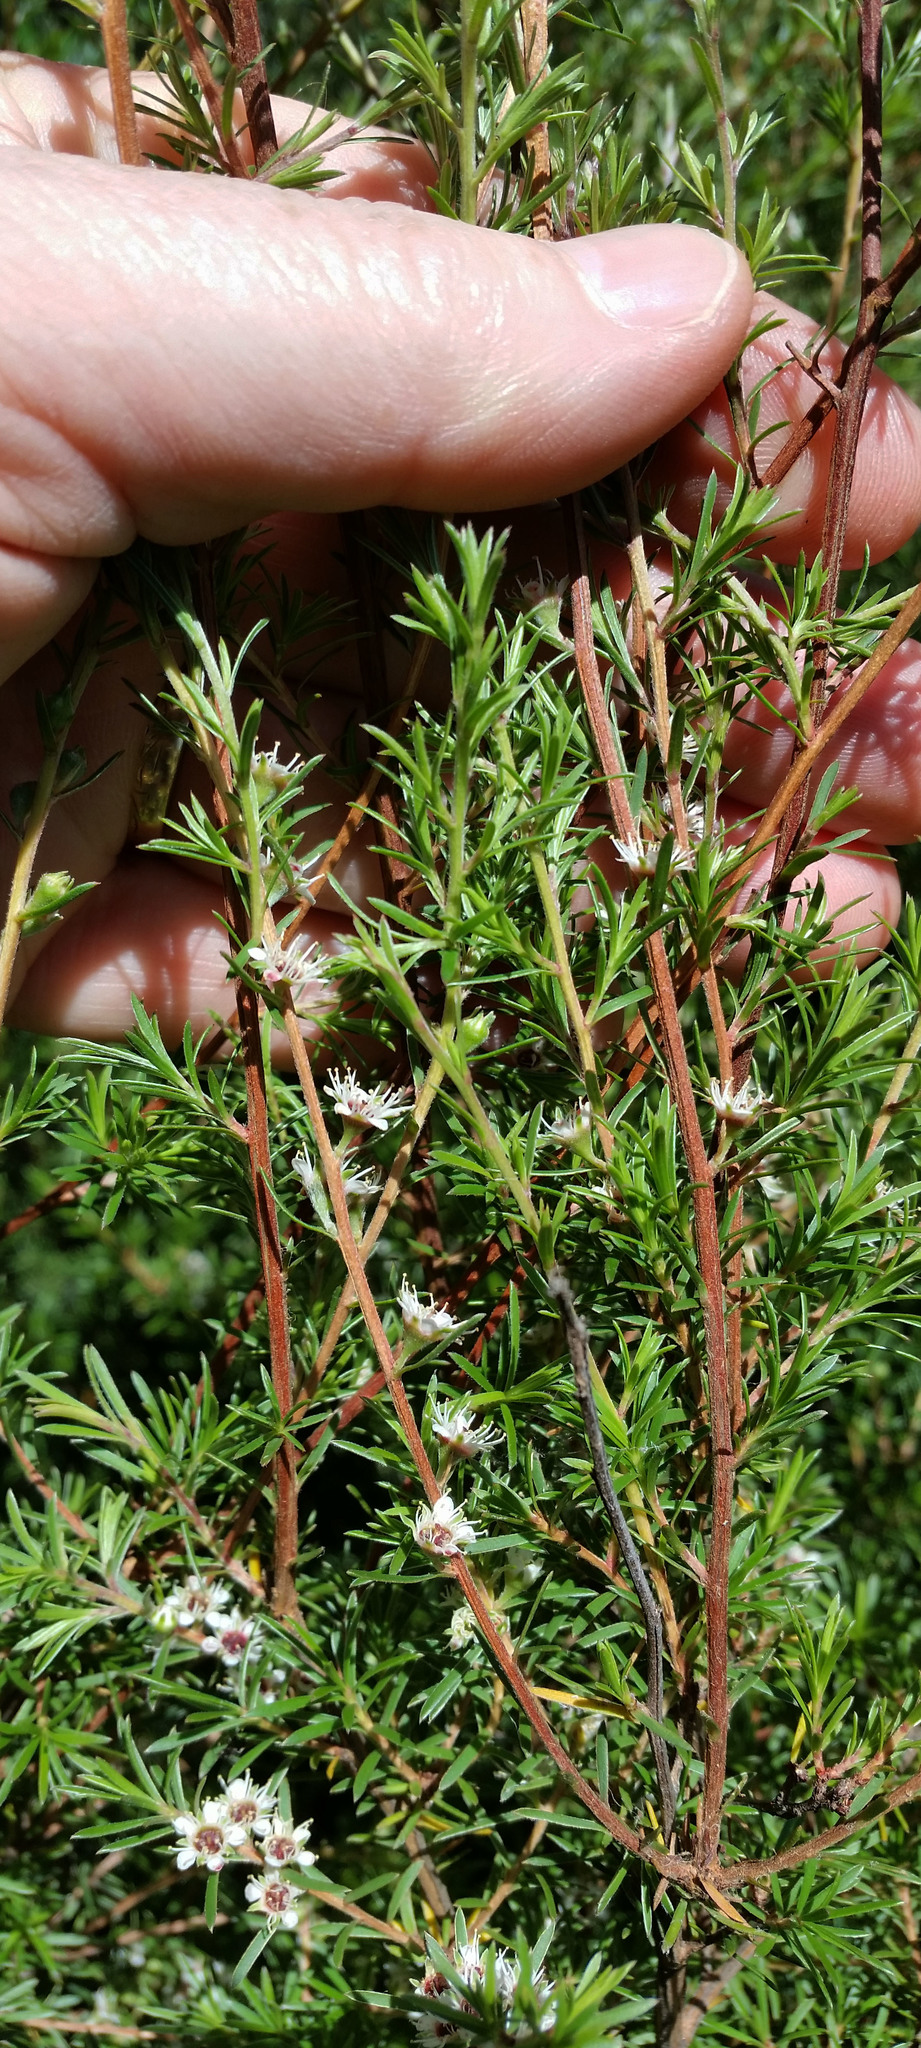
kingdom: Plantae
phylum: Tracheophyta
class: Magnoliopsida
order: Myrtales
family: Myrtaceae
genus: Kunzea
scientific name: Kunzea linearis
